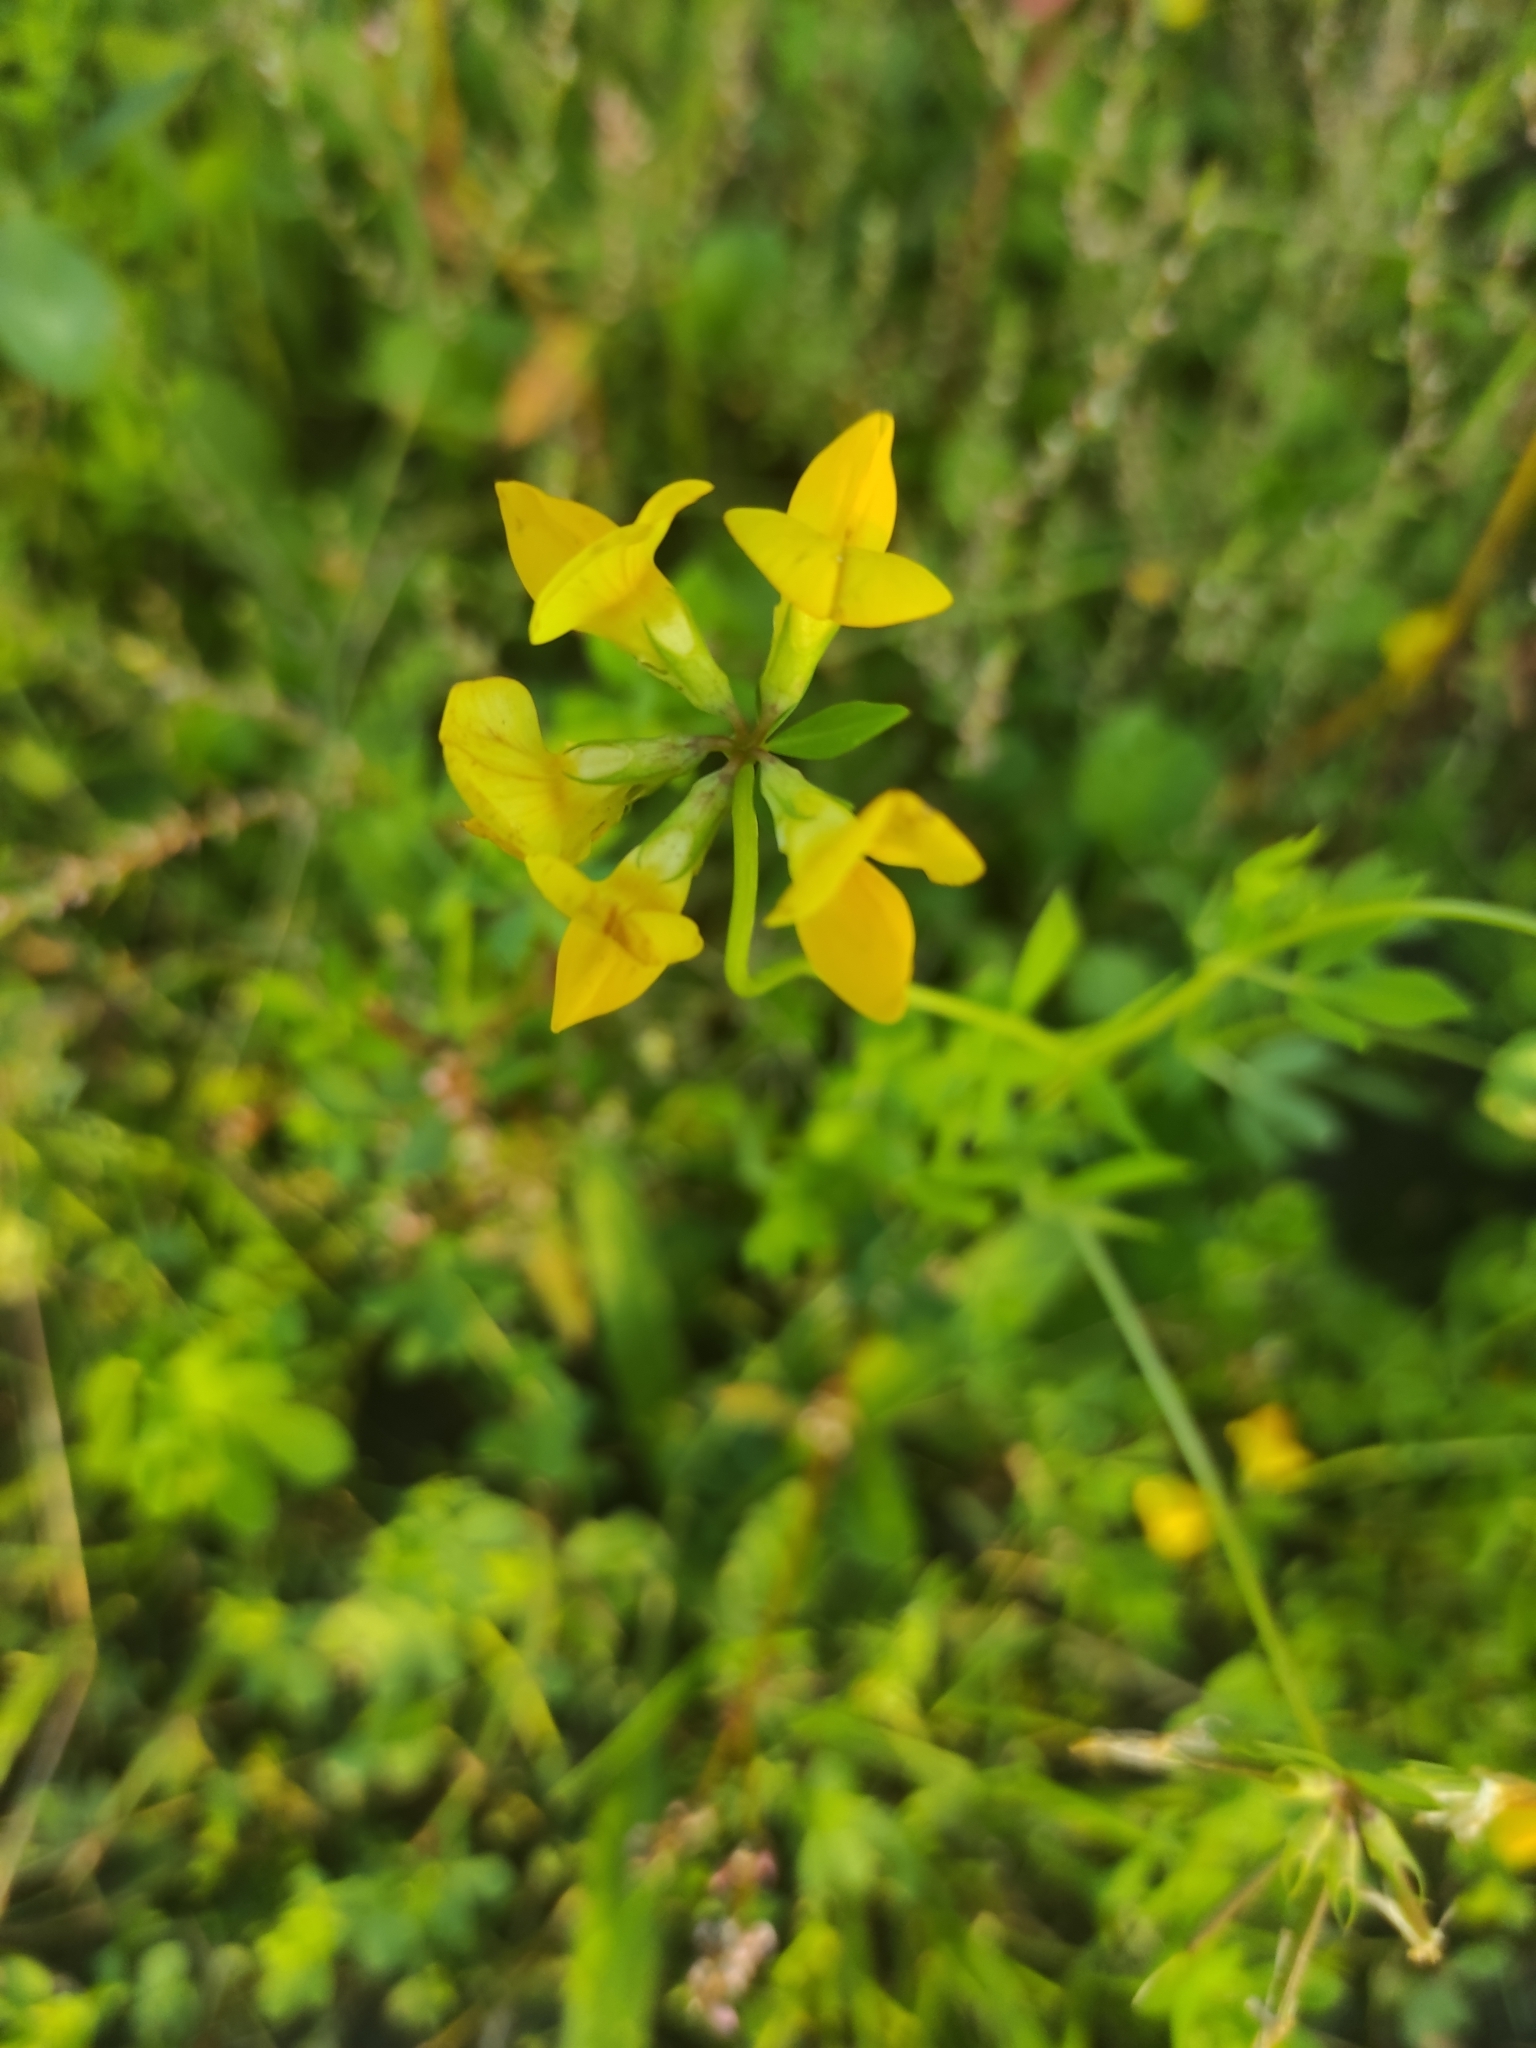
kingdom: Plantae
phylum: Tracheophyta
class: Magnoliopsida
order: Fabales
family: Fabaceae
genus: Lotus
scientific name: Lotus corniculatus
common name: Common bird's-foot-trefoil
